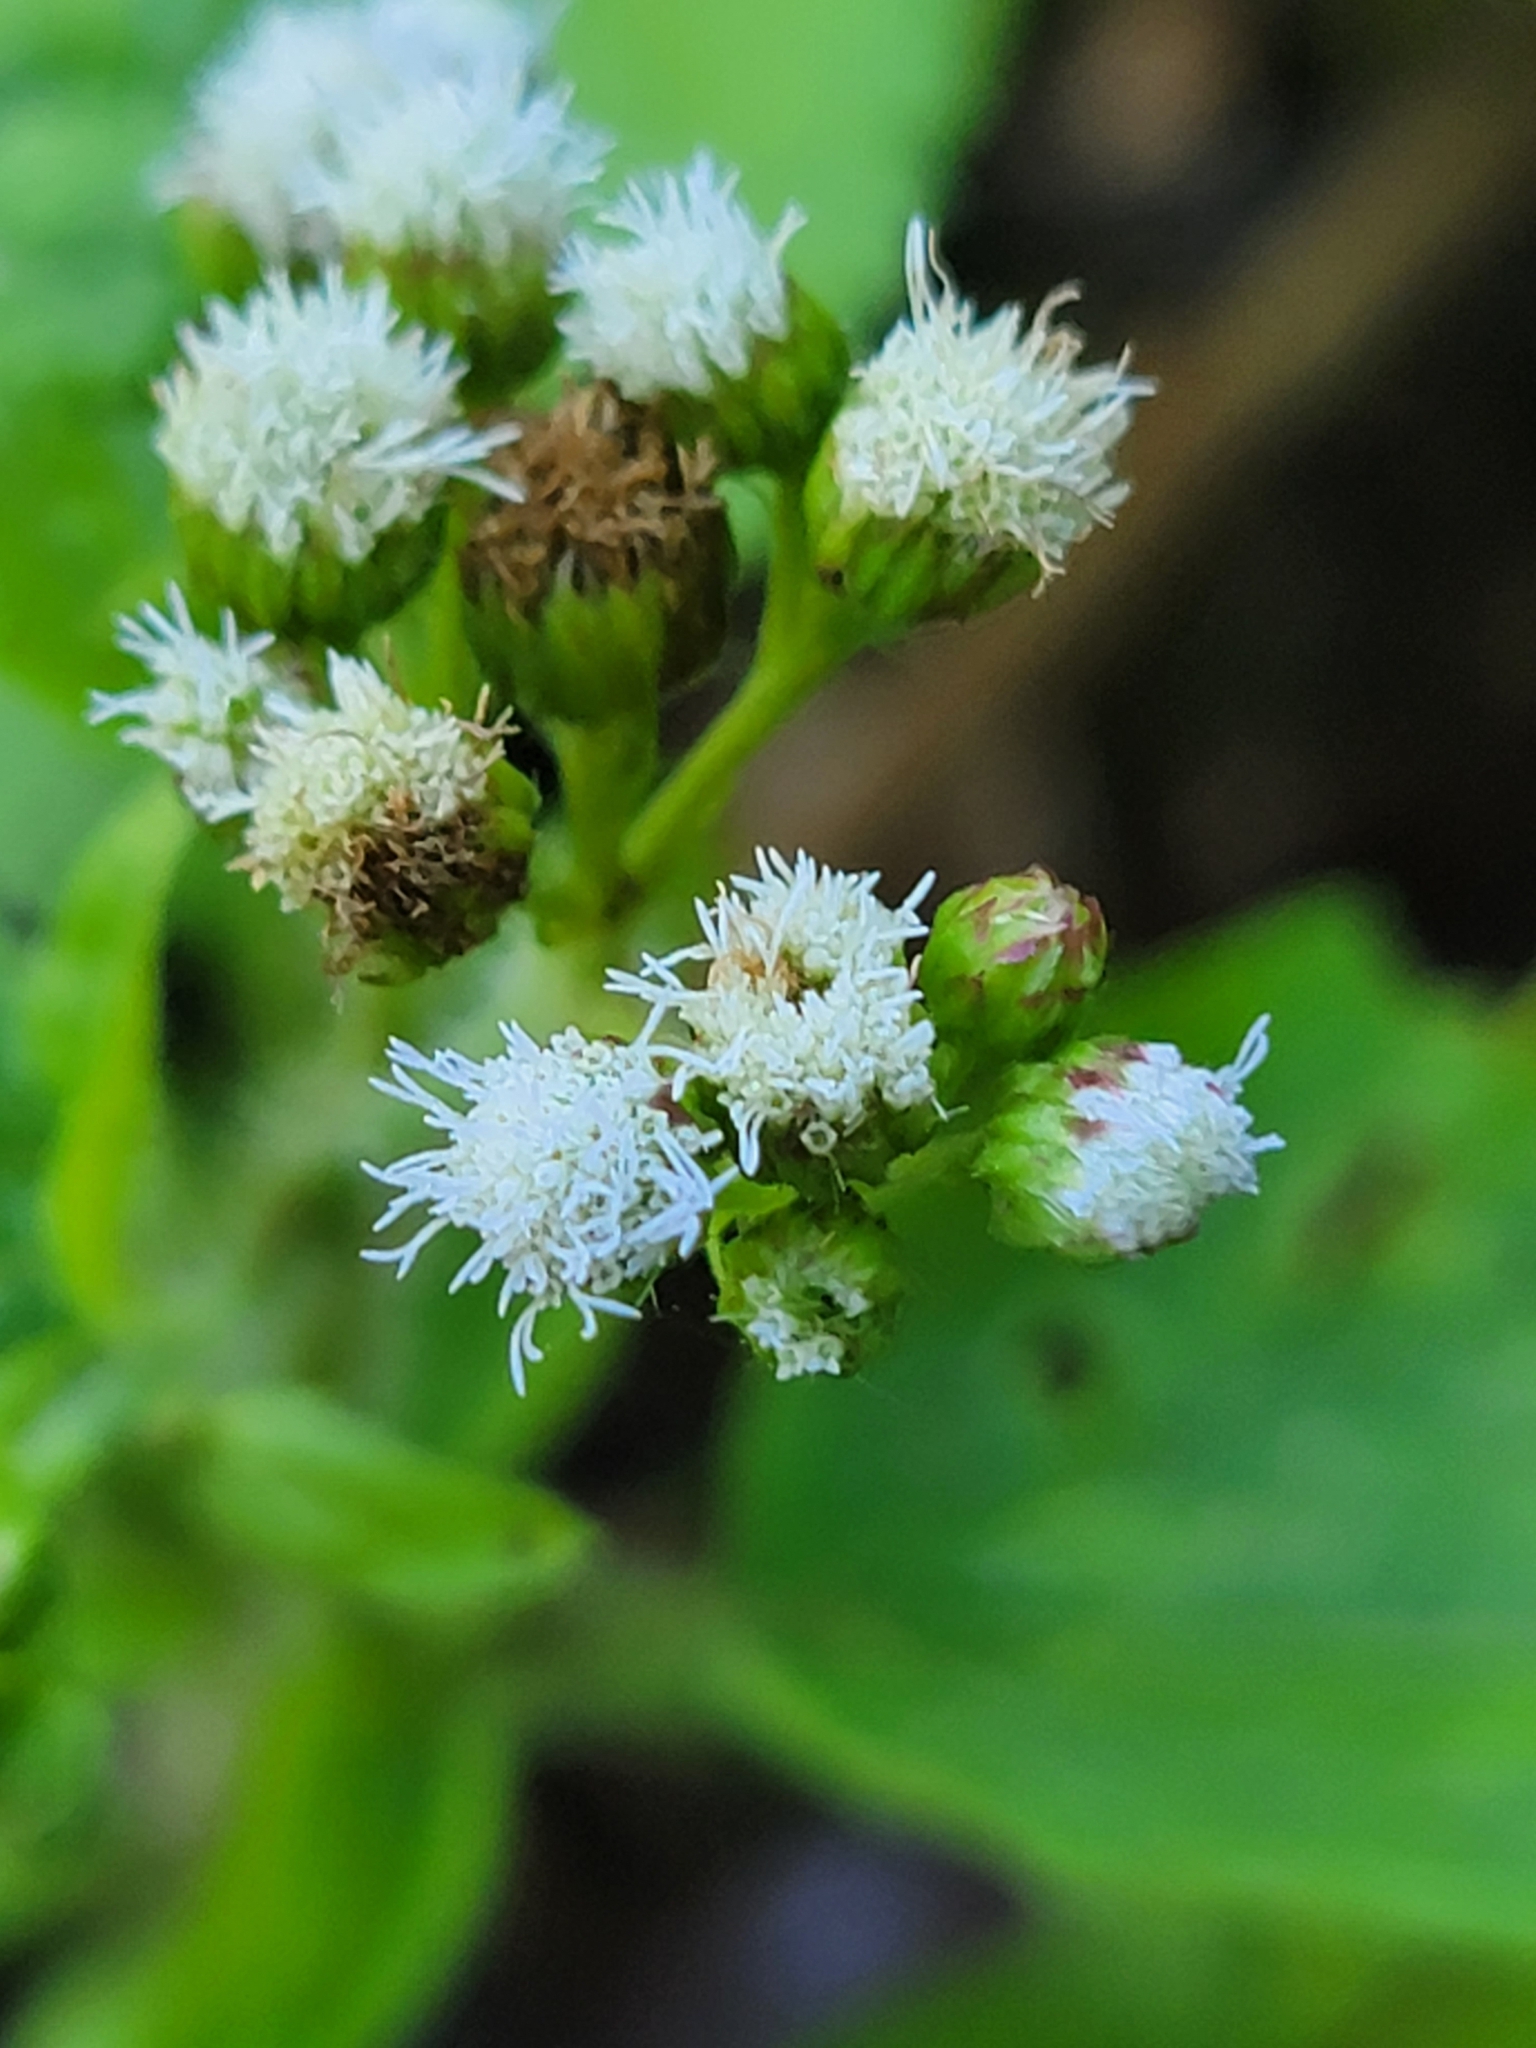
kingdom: Plantae
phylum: Tracheophyta
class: Magnoliopsida
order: Asterales
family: Asteraceae
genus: Ageratum
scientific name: Ageratum conyzoides
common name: Tropical whiteweed
